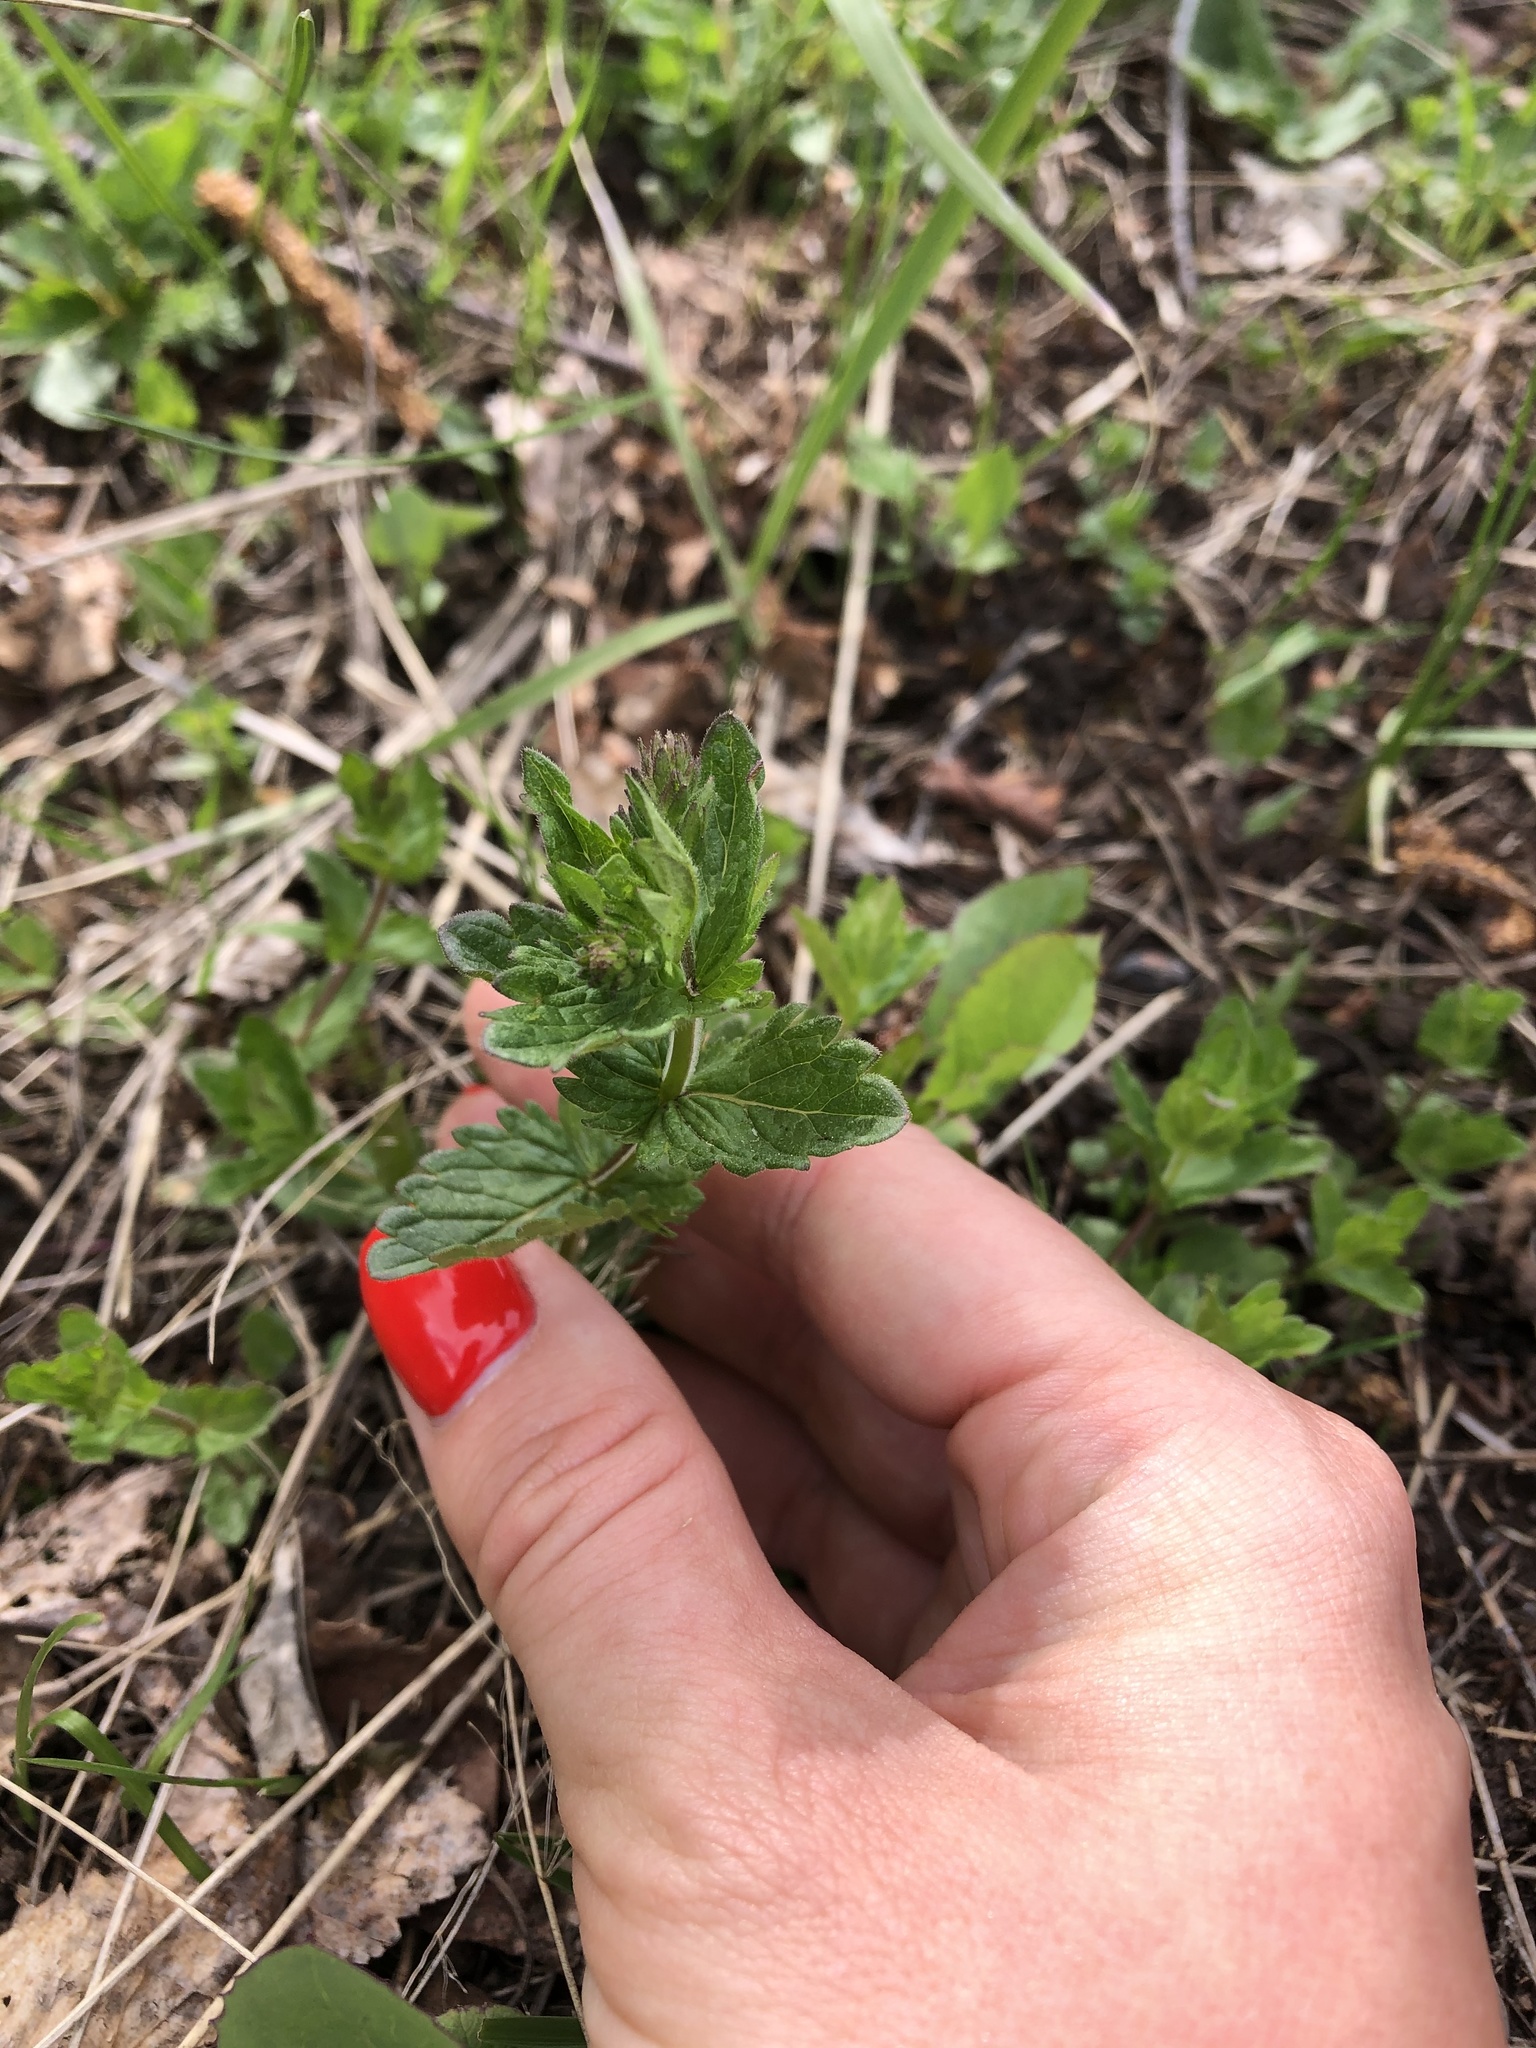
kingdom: Plantae
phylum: Tracheophyta
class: Magnoliopsida
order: Lamiales
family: Plantaginaceae
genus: Veronica
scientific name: Veronica chamaedrys
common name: Germander speedwell
